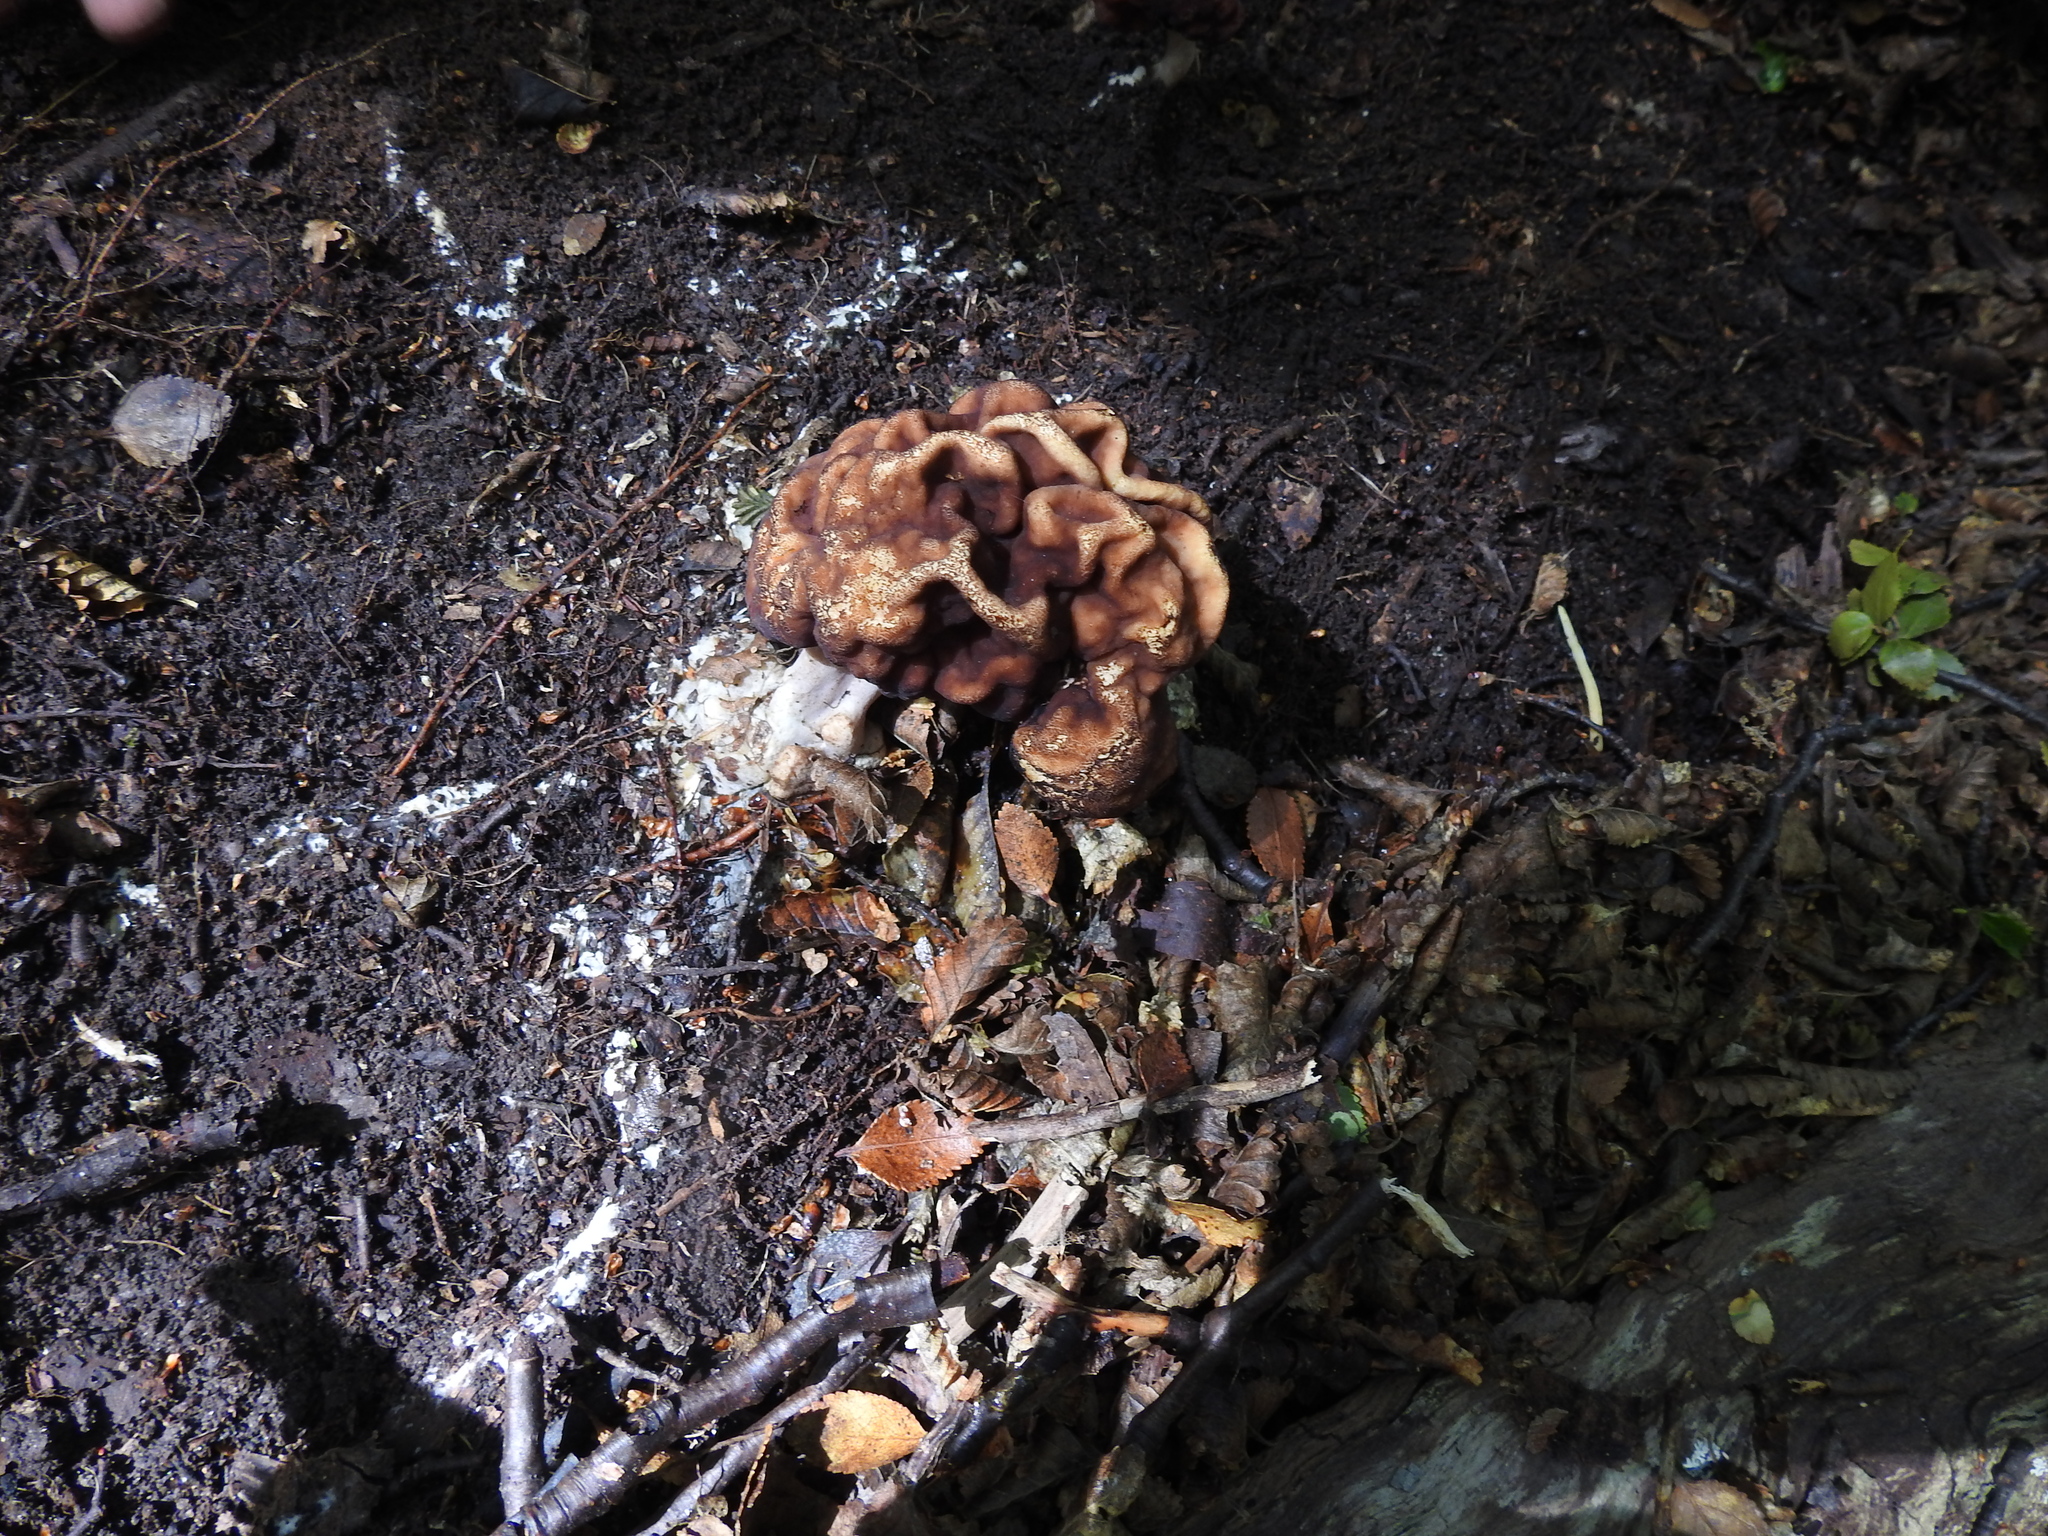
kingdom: Fungi
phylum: Ascomycota
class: Pezizomycetes
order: Pezizales
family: Discinaceae
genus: Gyromitra
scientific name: Gyromitra antarctica
